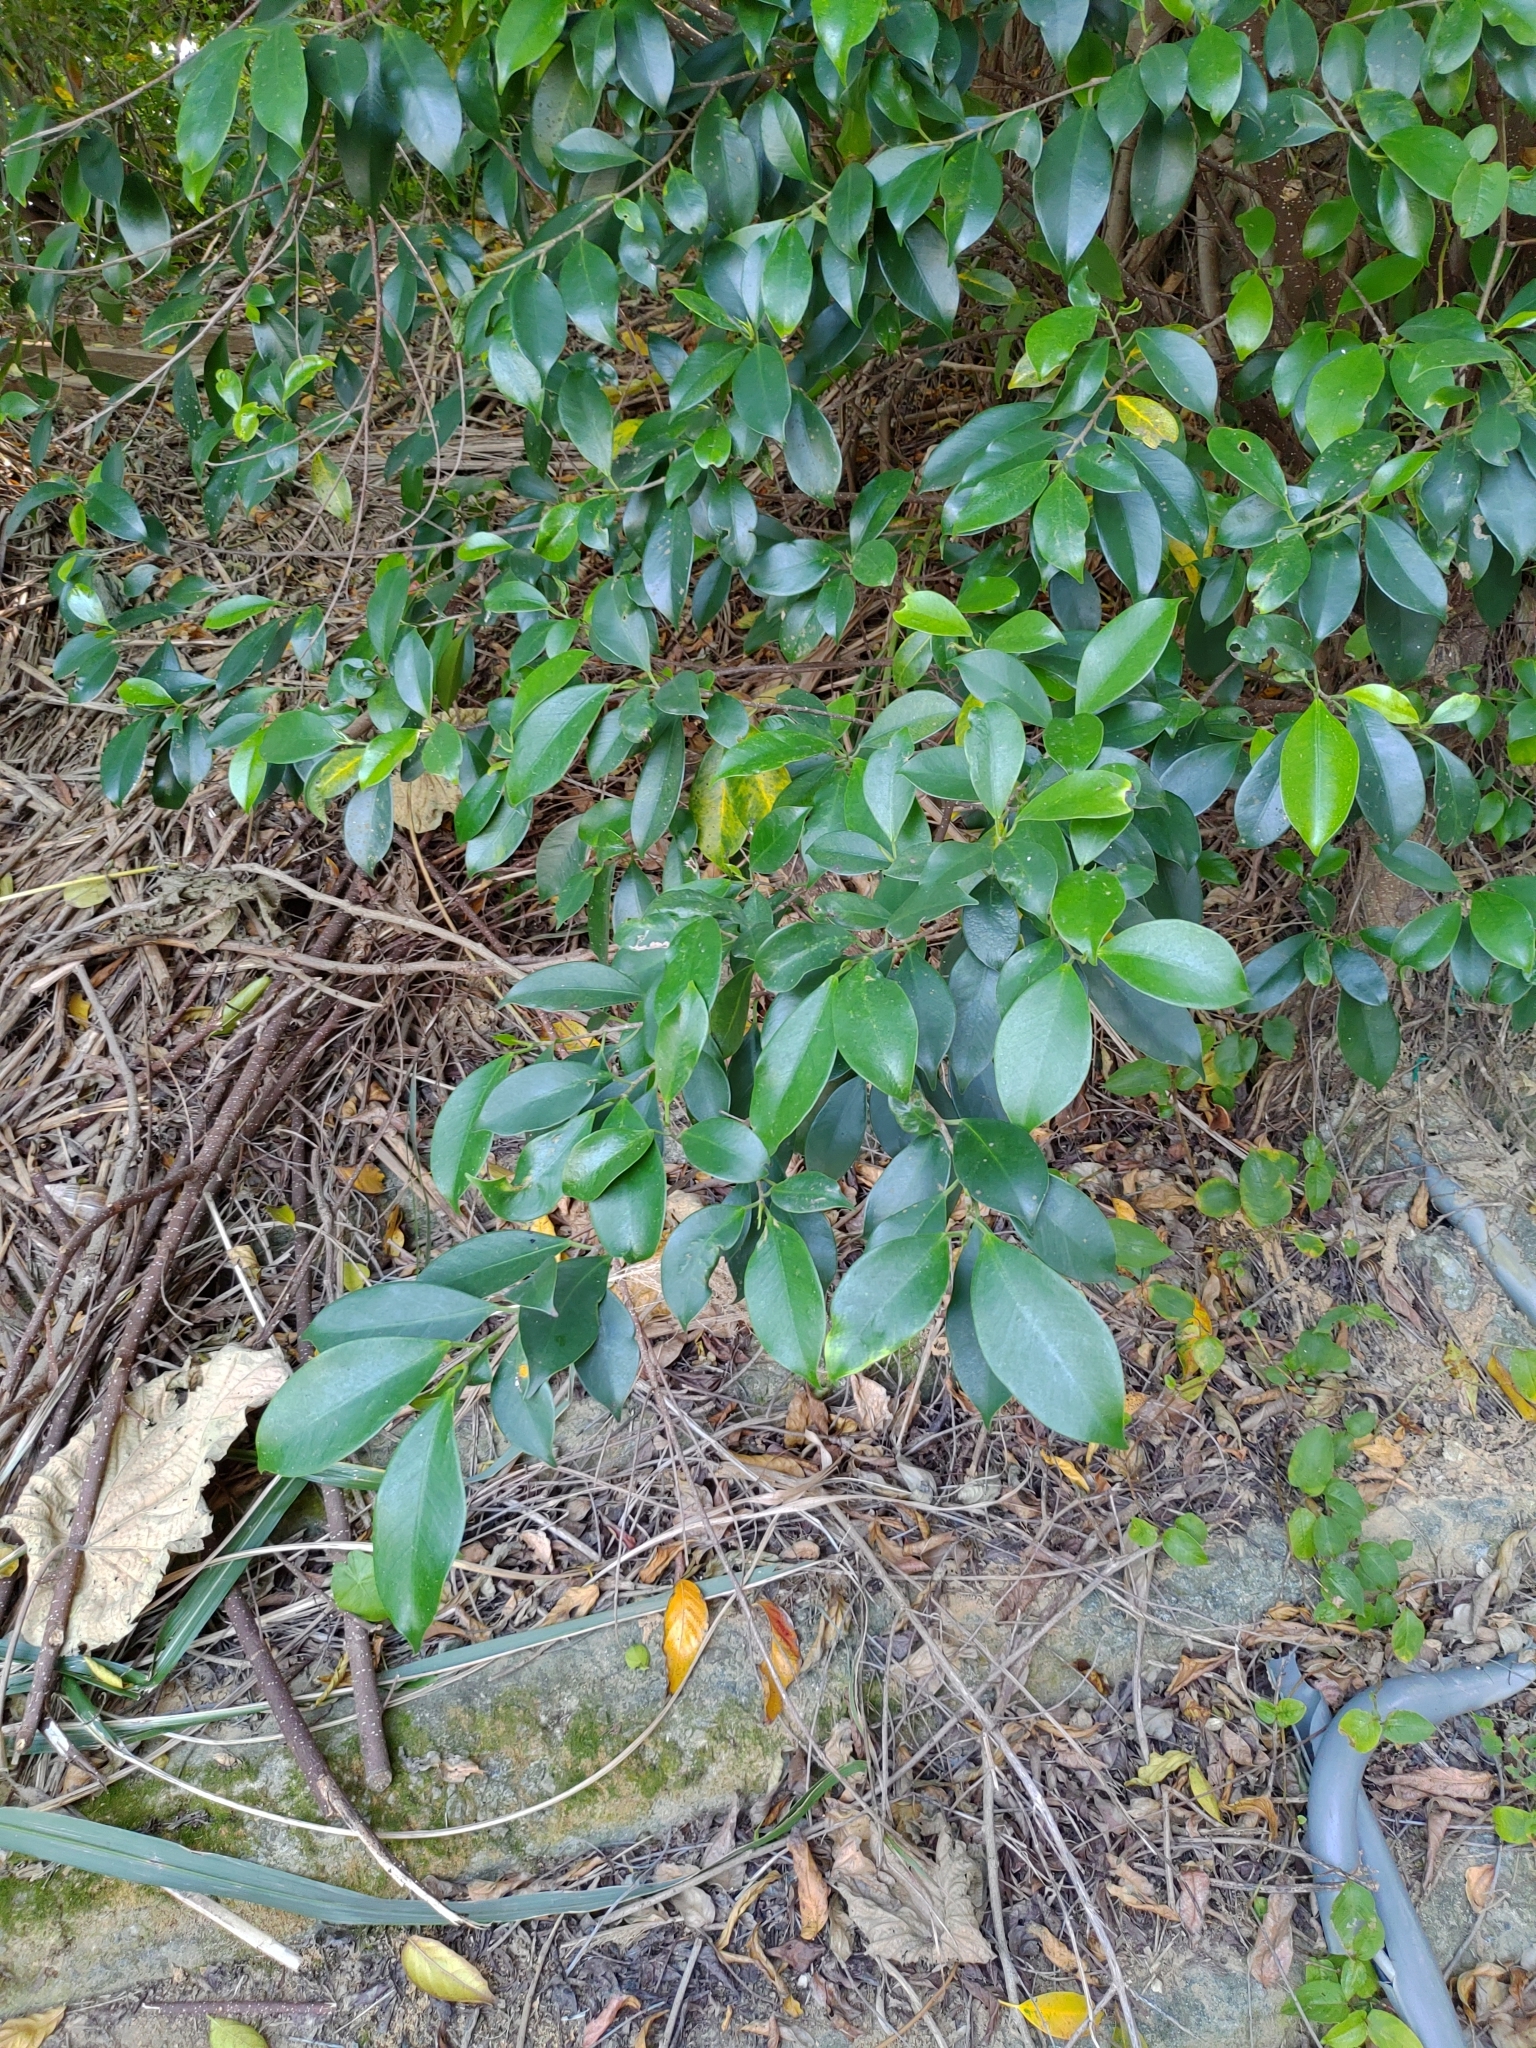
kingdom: Plantae
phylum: Tracheophyta
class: Magnoliopsida
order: Rosales
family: Moraceae
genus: Ficus
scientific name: Ficus microcarpa
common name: Chinese banyan
